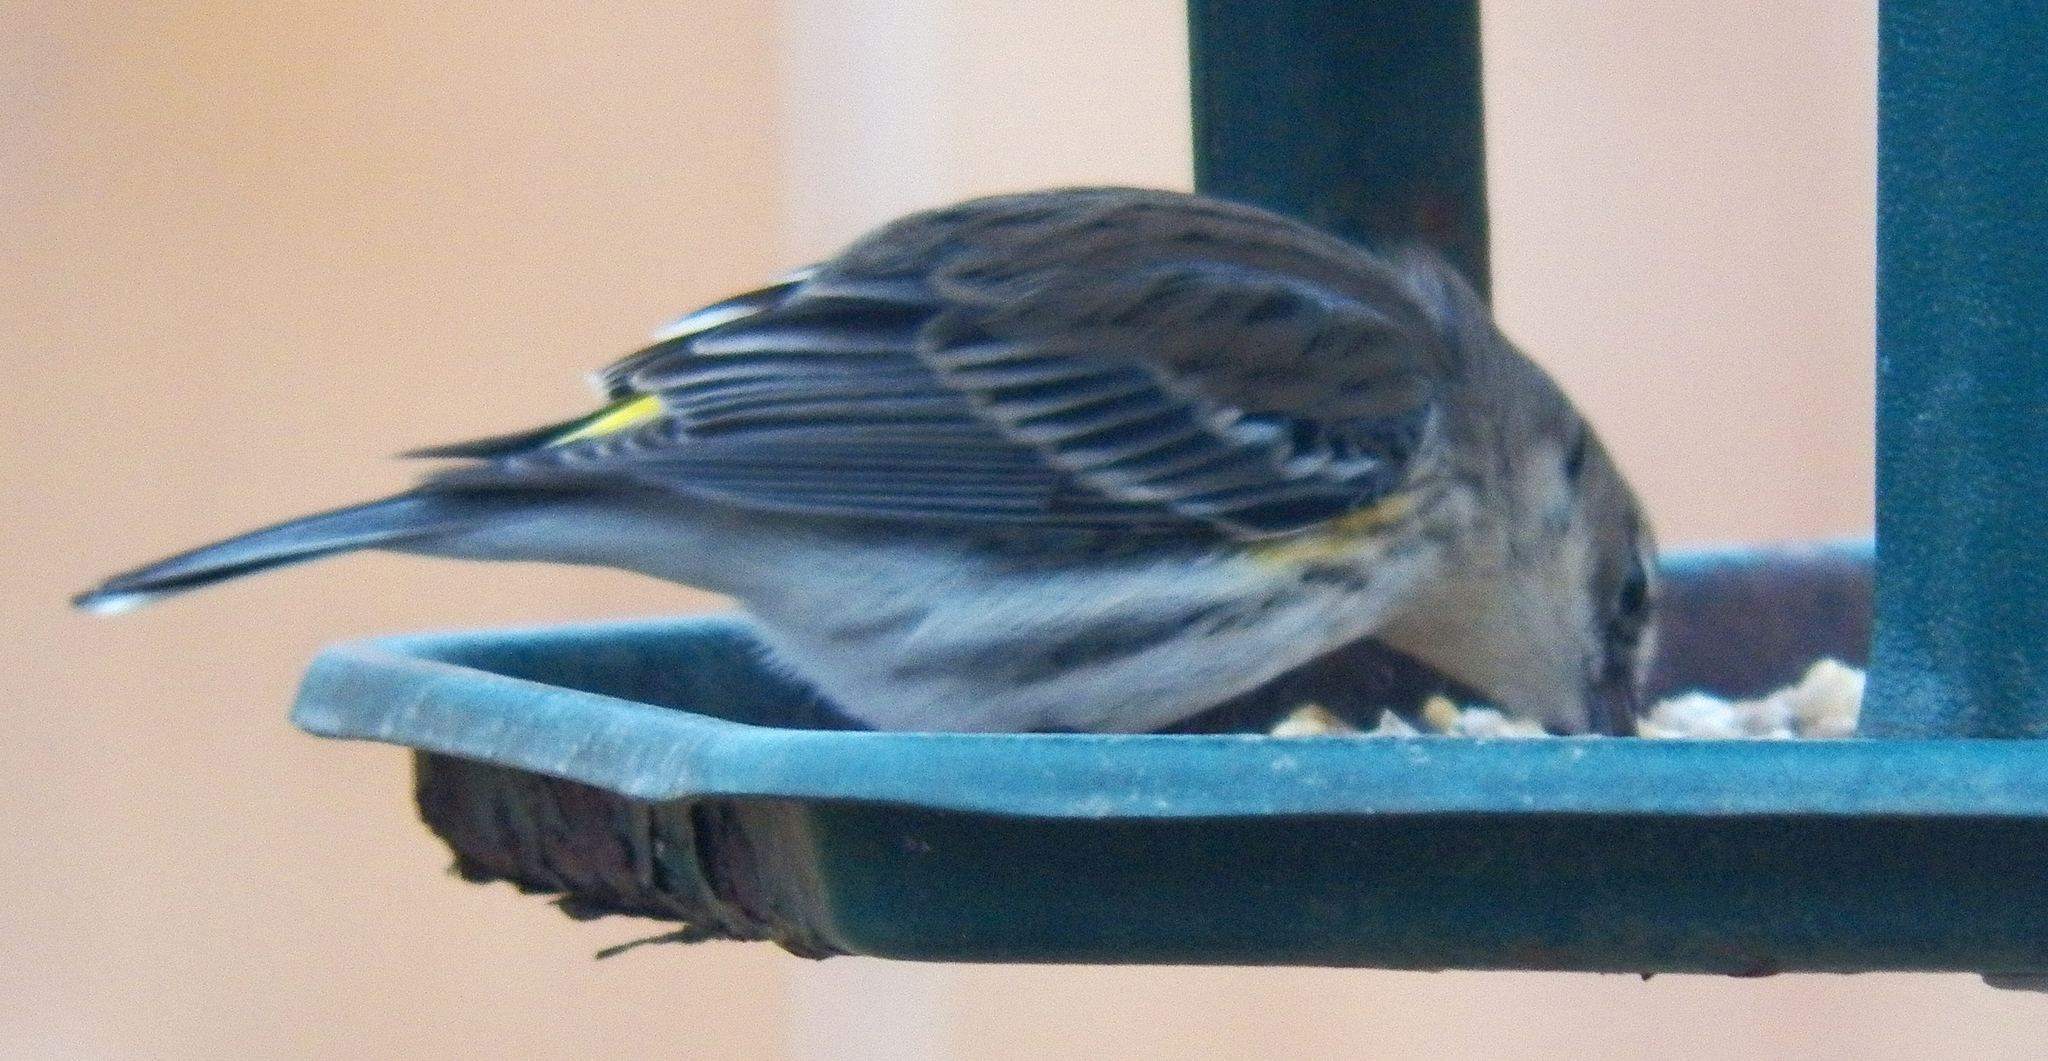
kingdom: Animalia
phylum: Chordata
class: Aves
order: Passeriformes
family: Parulidae
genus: Setophaga
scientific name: Setophaga coronata
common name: Myrtle warbler
